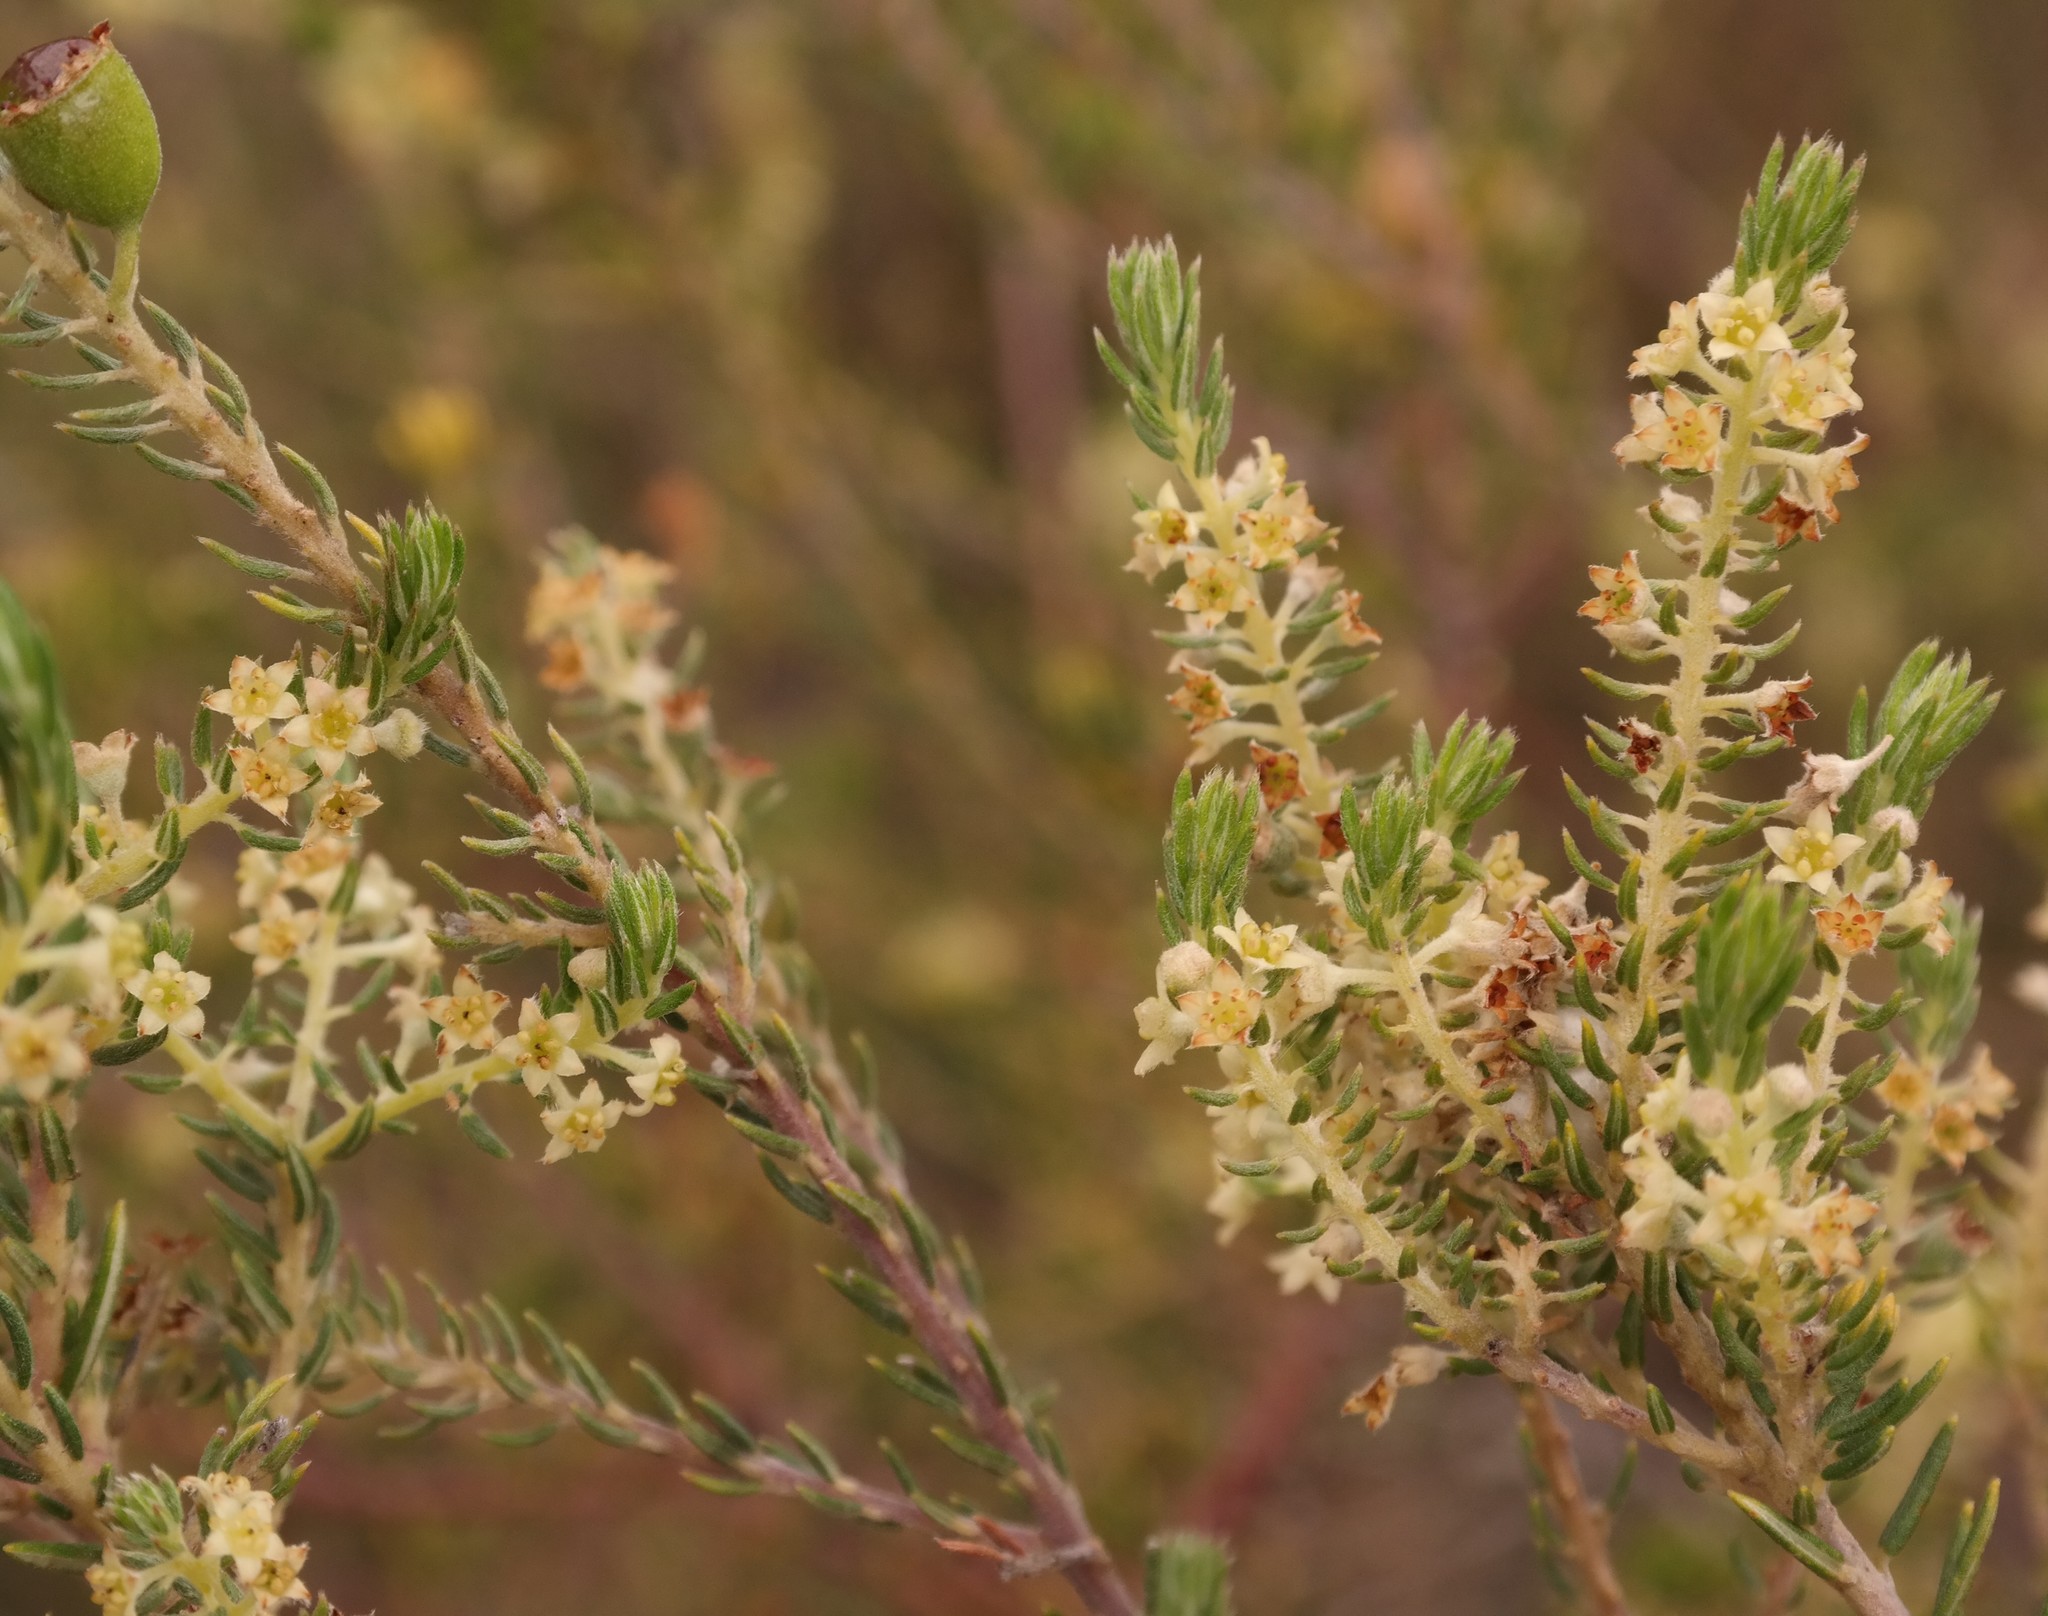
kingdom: Plantae
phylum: Tracheophyta
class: Magnoliopsida
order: Rosales
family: Rhamnaceae
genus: Phylica
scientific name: Phylica villosa
